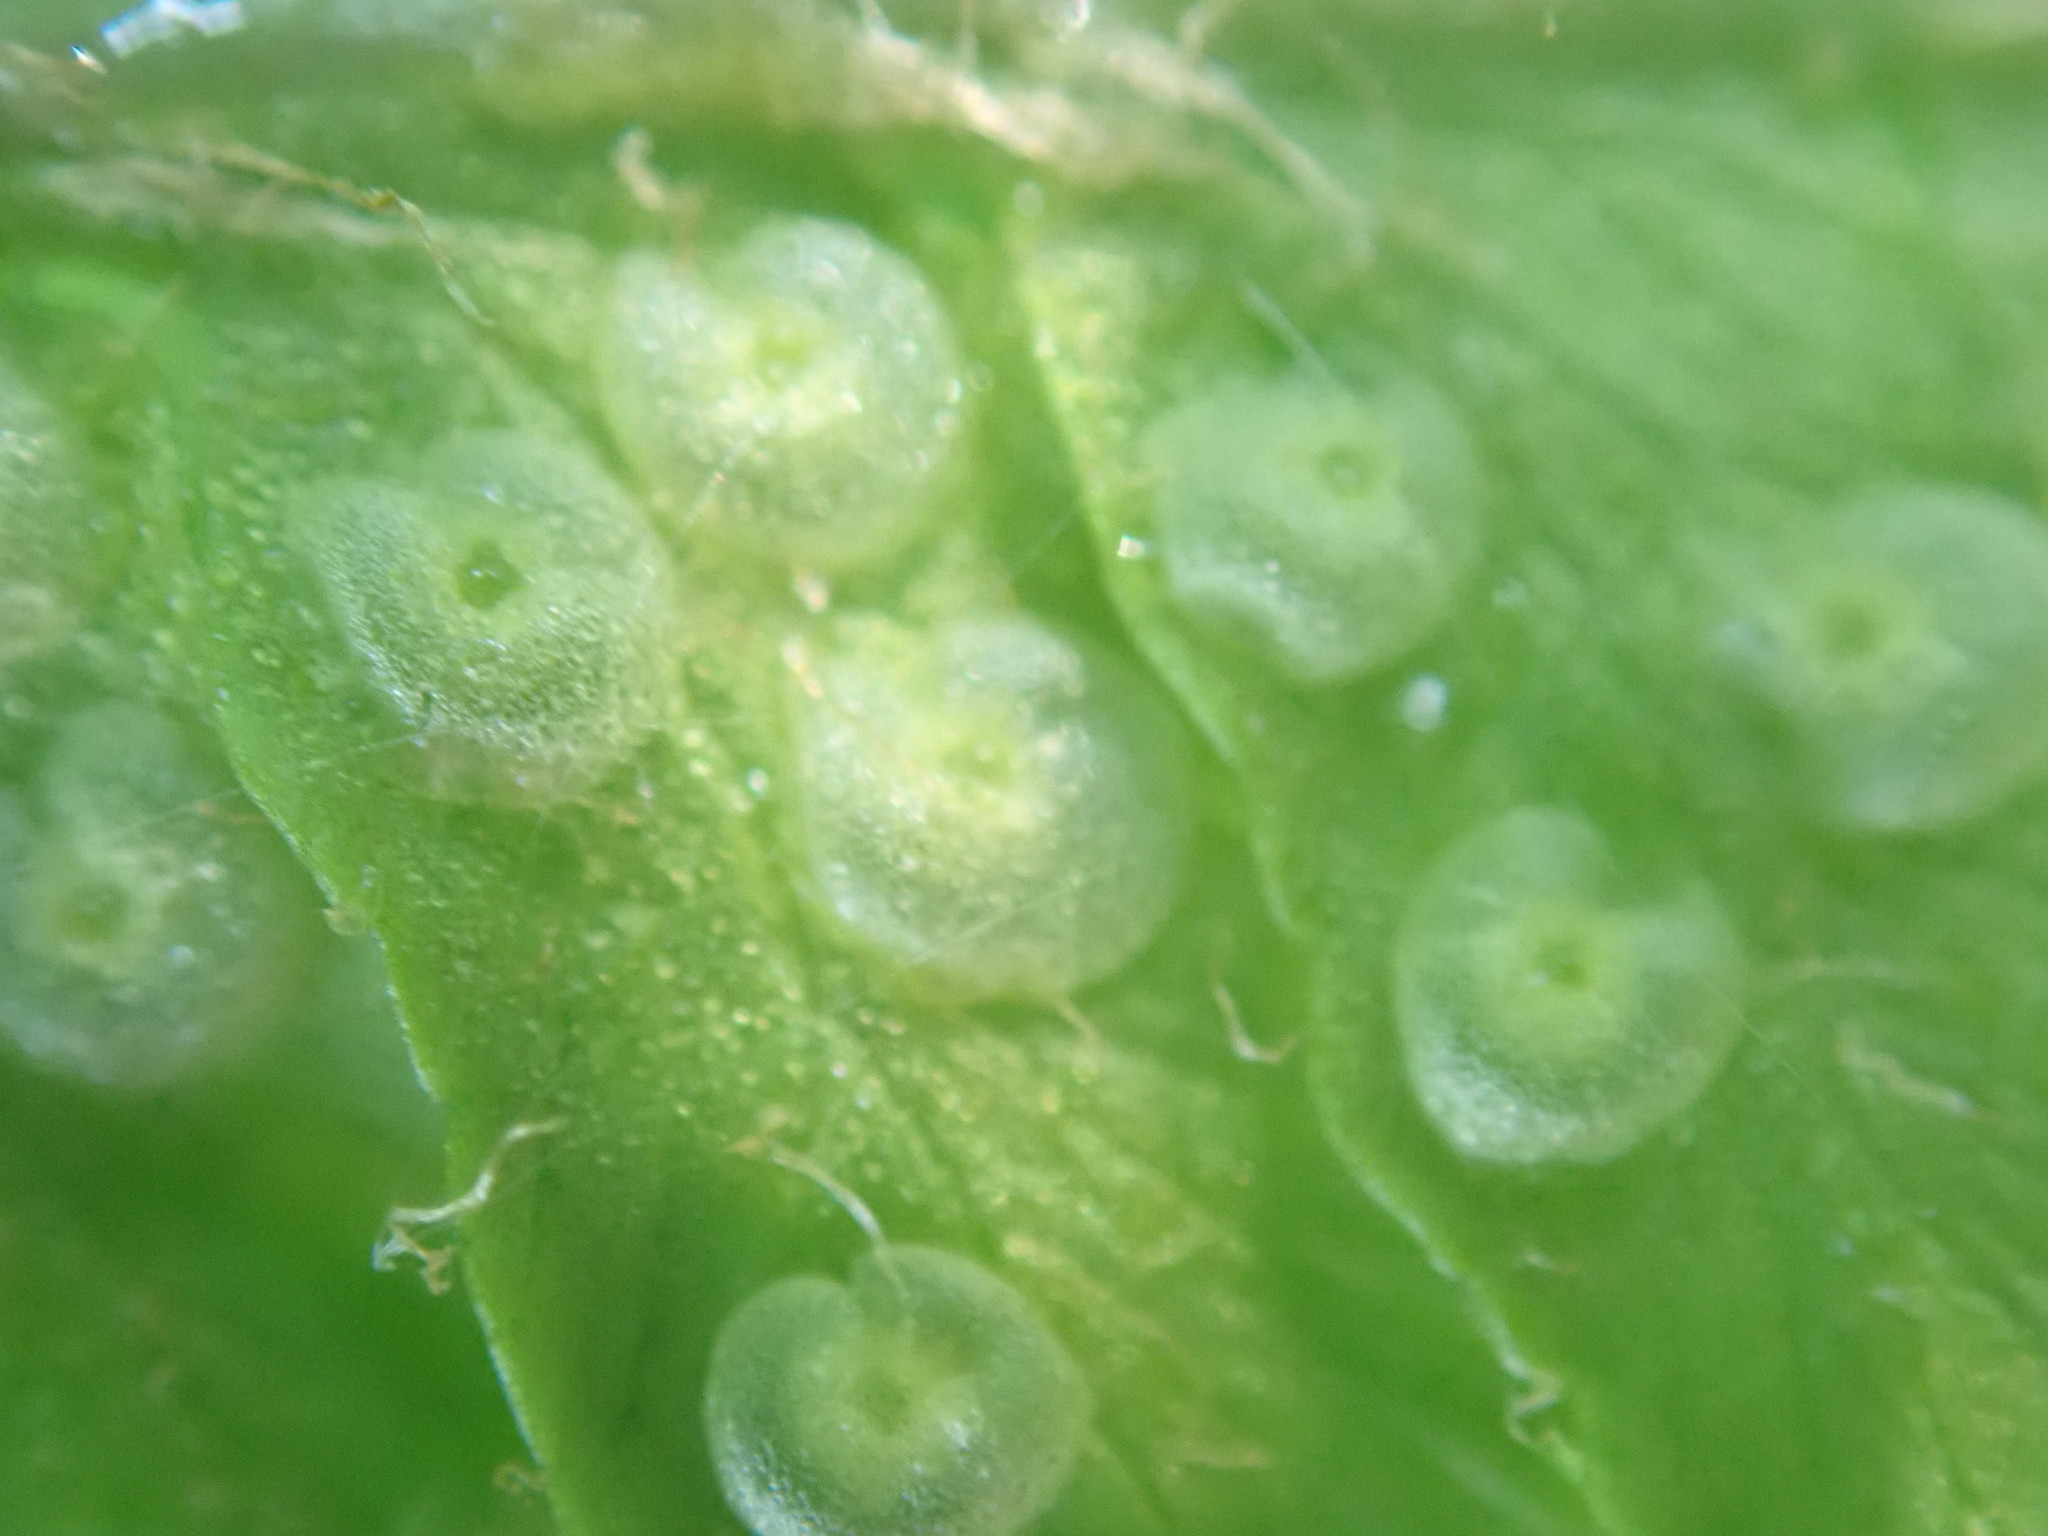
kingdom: Plantae
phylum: Tracheophyta
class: Polypodiopsida
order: Polypodiales
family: Dryopteridaceae
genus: Dryopteris
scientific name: Dryopteris filix-mas
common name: Male fern
